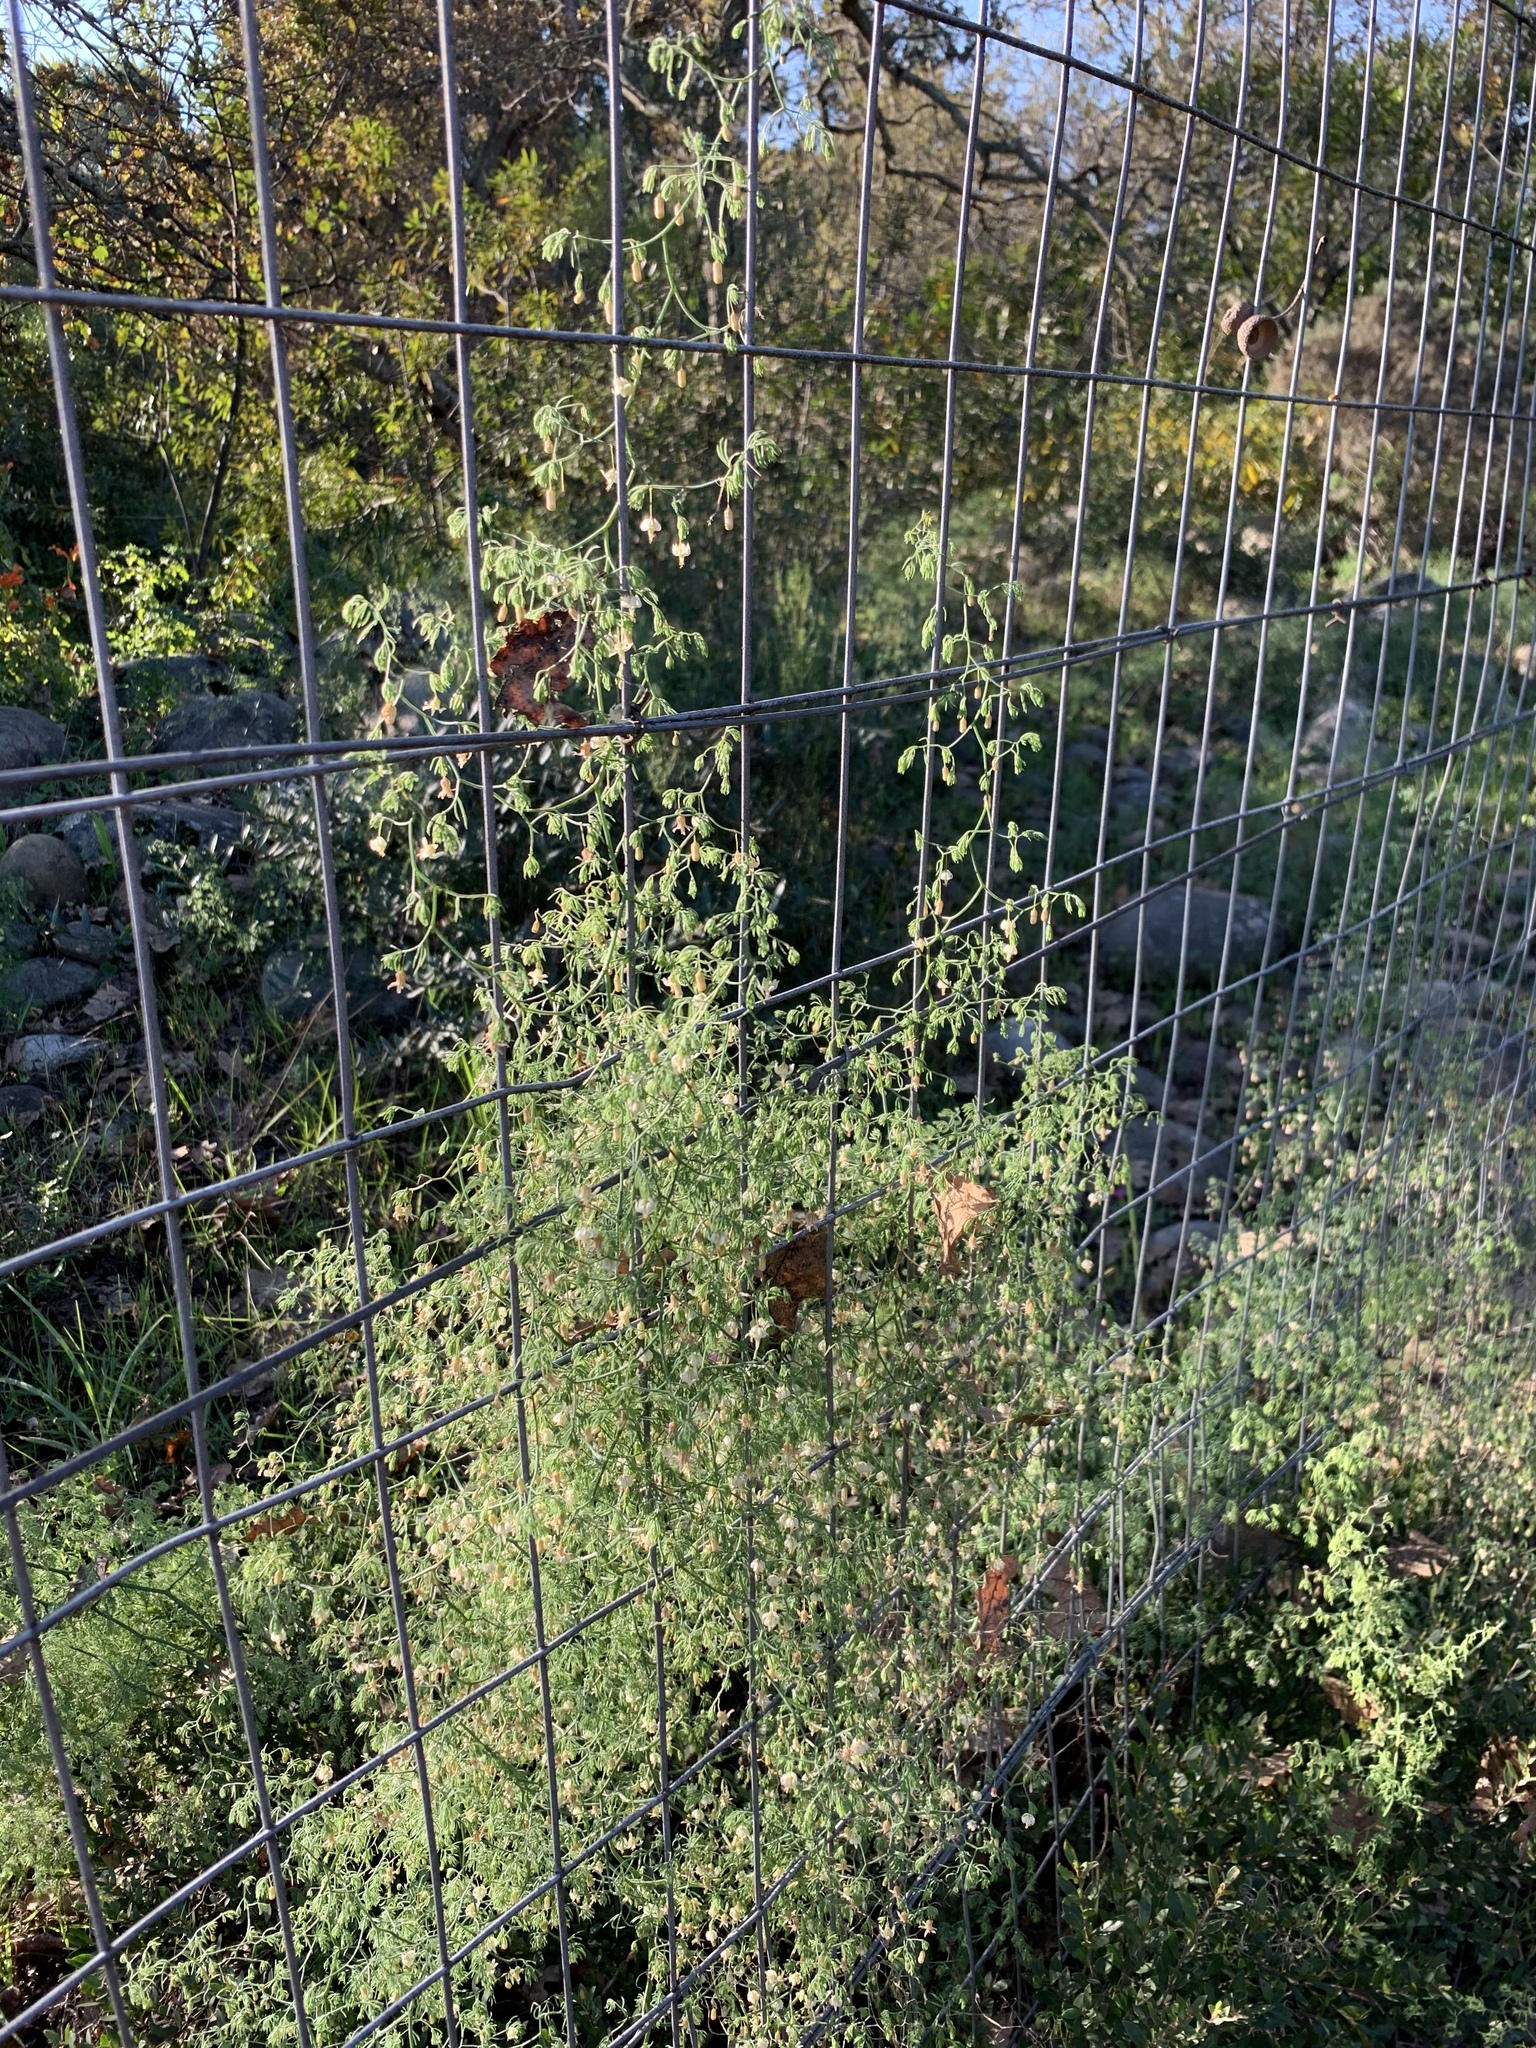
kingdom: Plantae
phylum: Tracheophyta
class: Liliopsida
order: Asparagales
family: Asparagaceae
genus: Asparagus
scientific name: Asparagus declinatus
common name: Bridal-creeper
